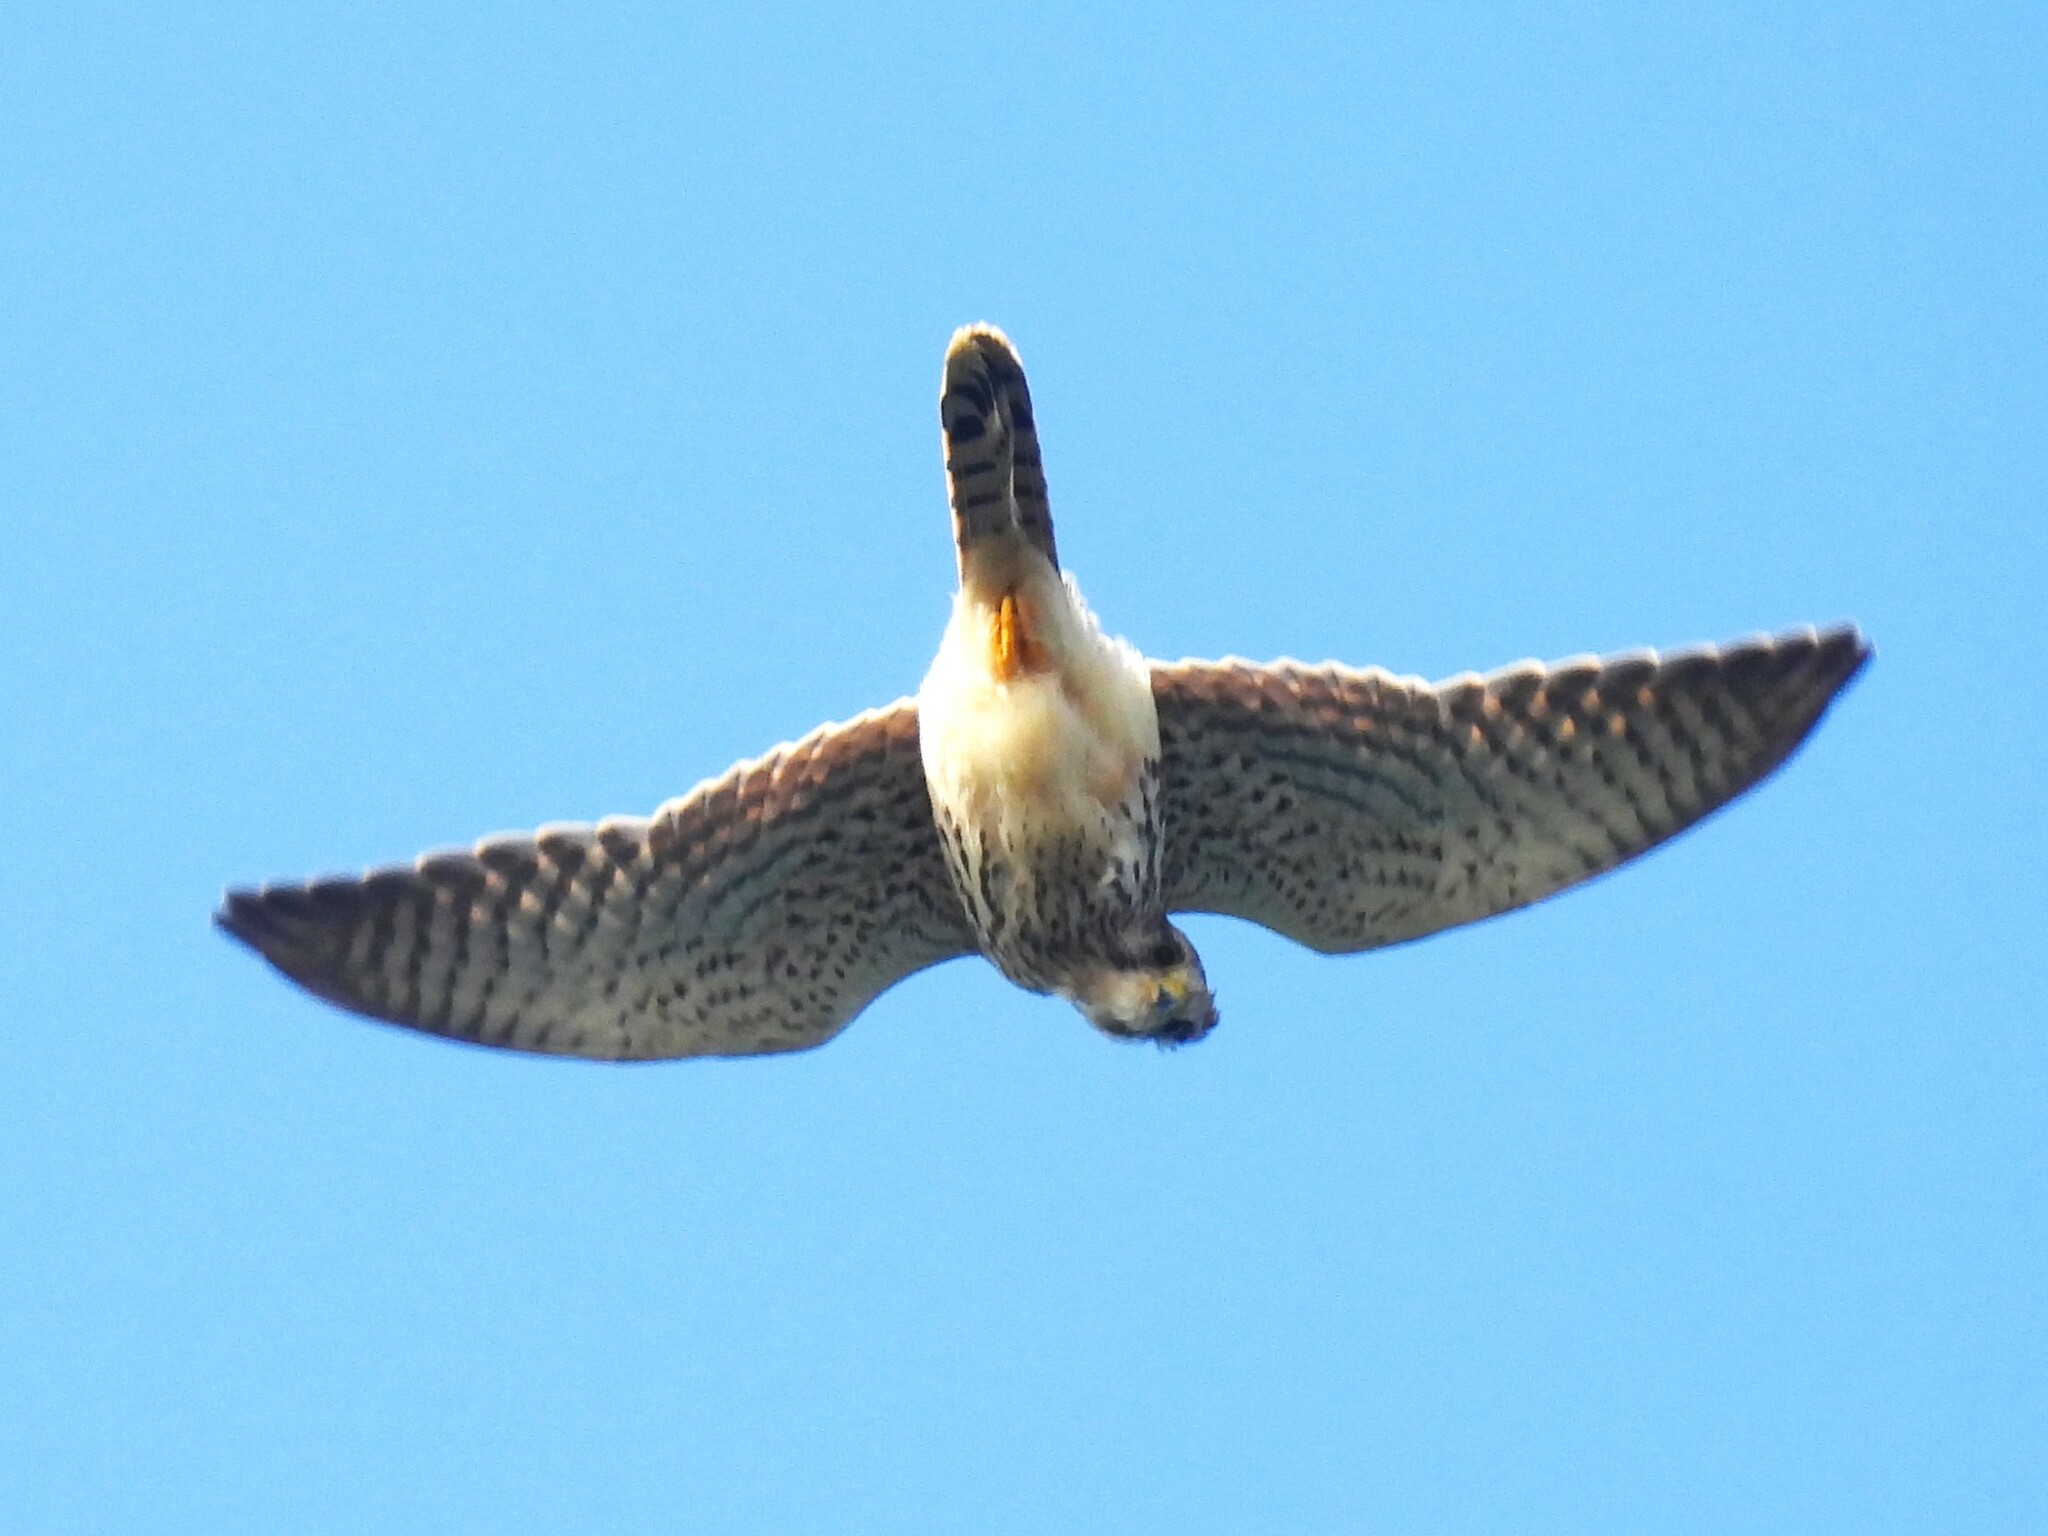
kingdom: Animalia
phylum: Chordata
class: Aves
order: Falconiformes
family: Falconidae
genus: Falco
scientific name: Falco tinnunculus
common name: Common kestrel
